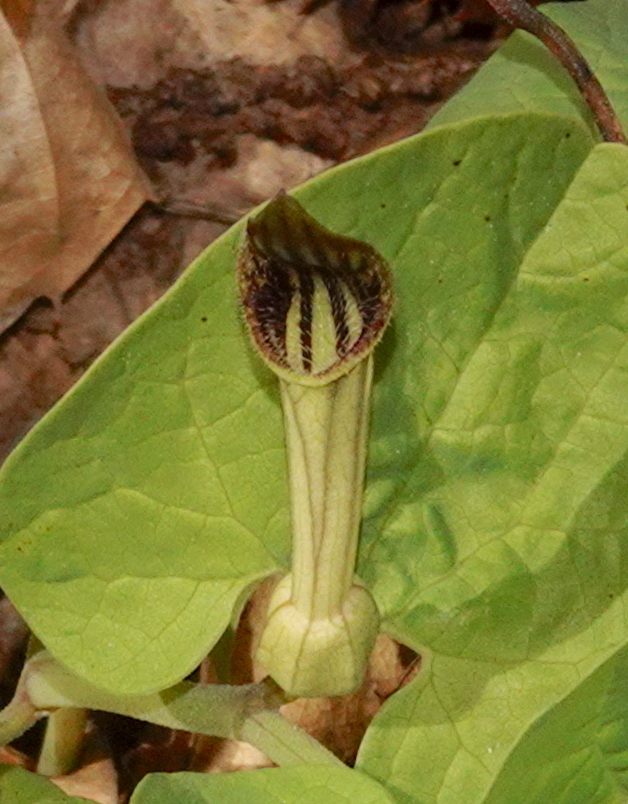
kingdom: Plantae
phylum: Tracheophyta
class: Magnoliopsida
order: Piperales
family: Aristolochiaceae
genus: Aristolochia
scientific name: Aristolochia paucinervis
